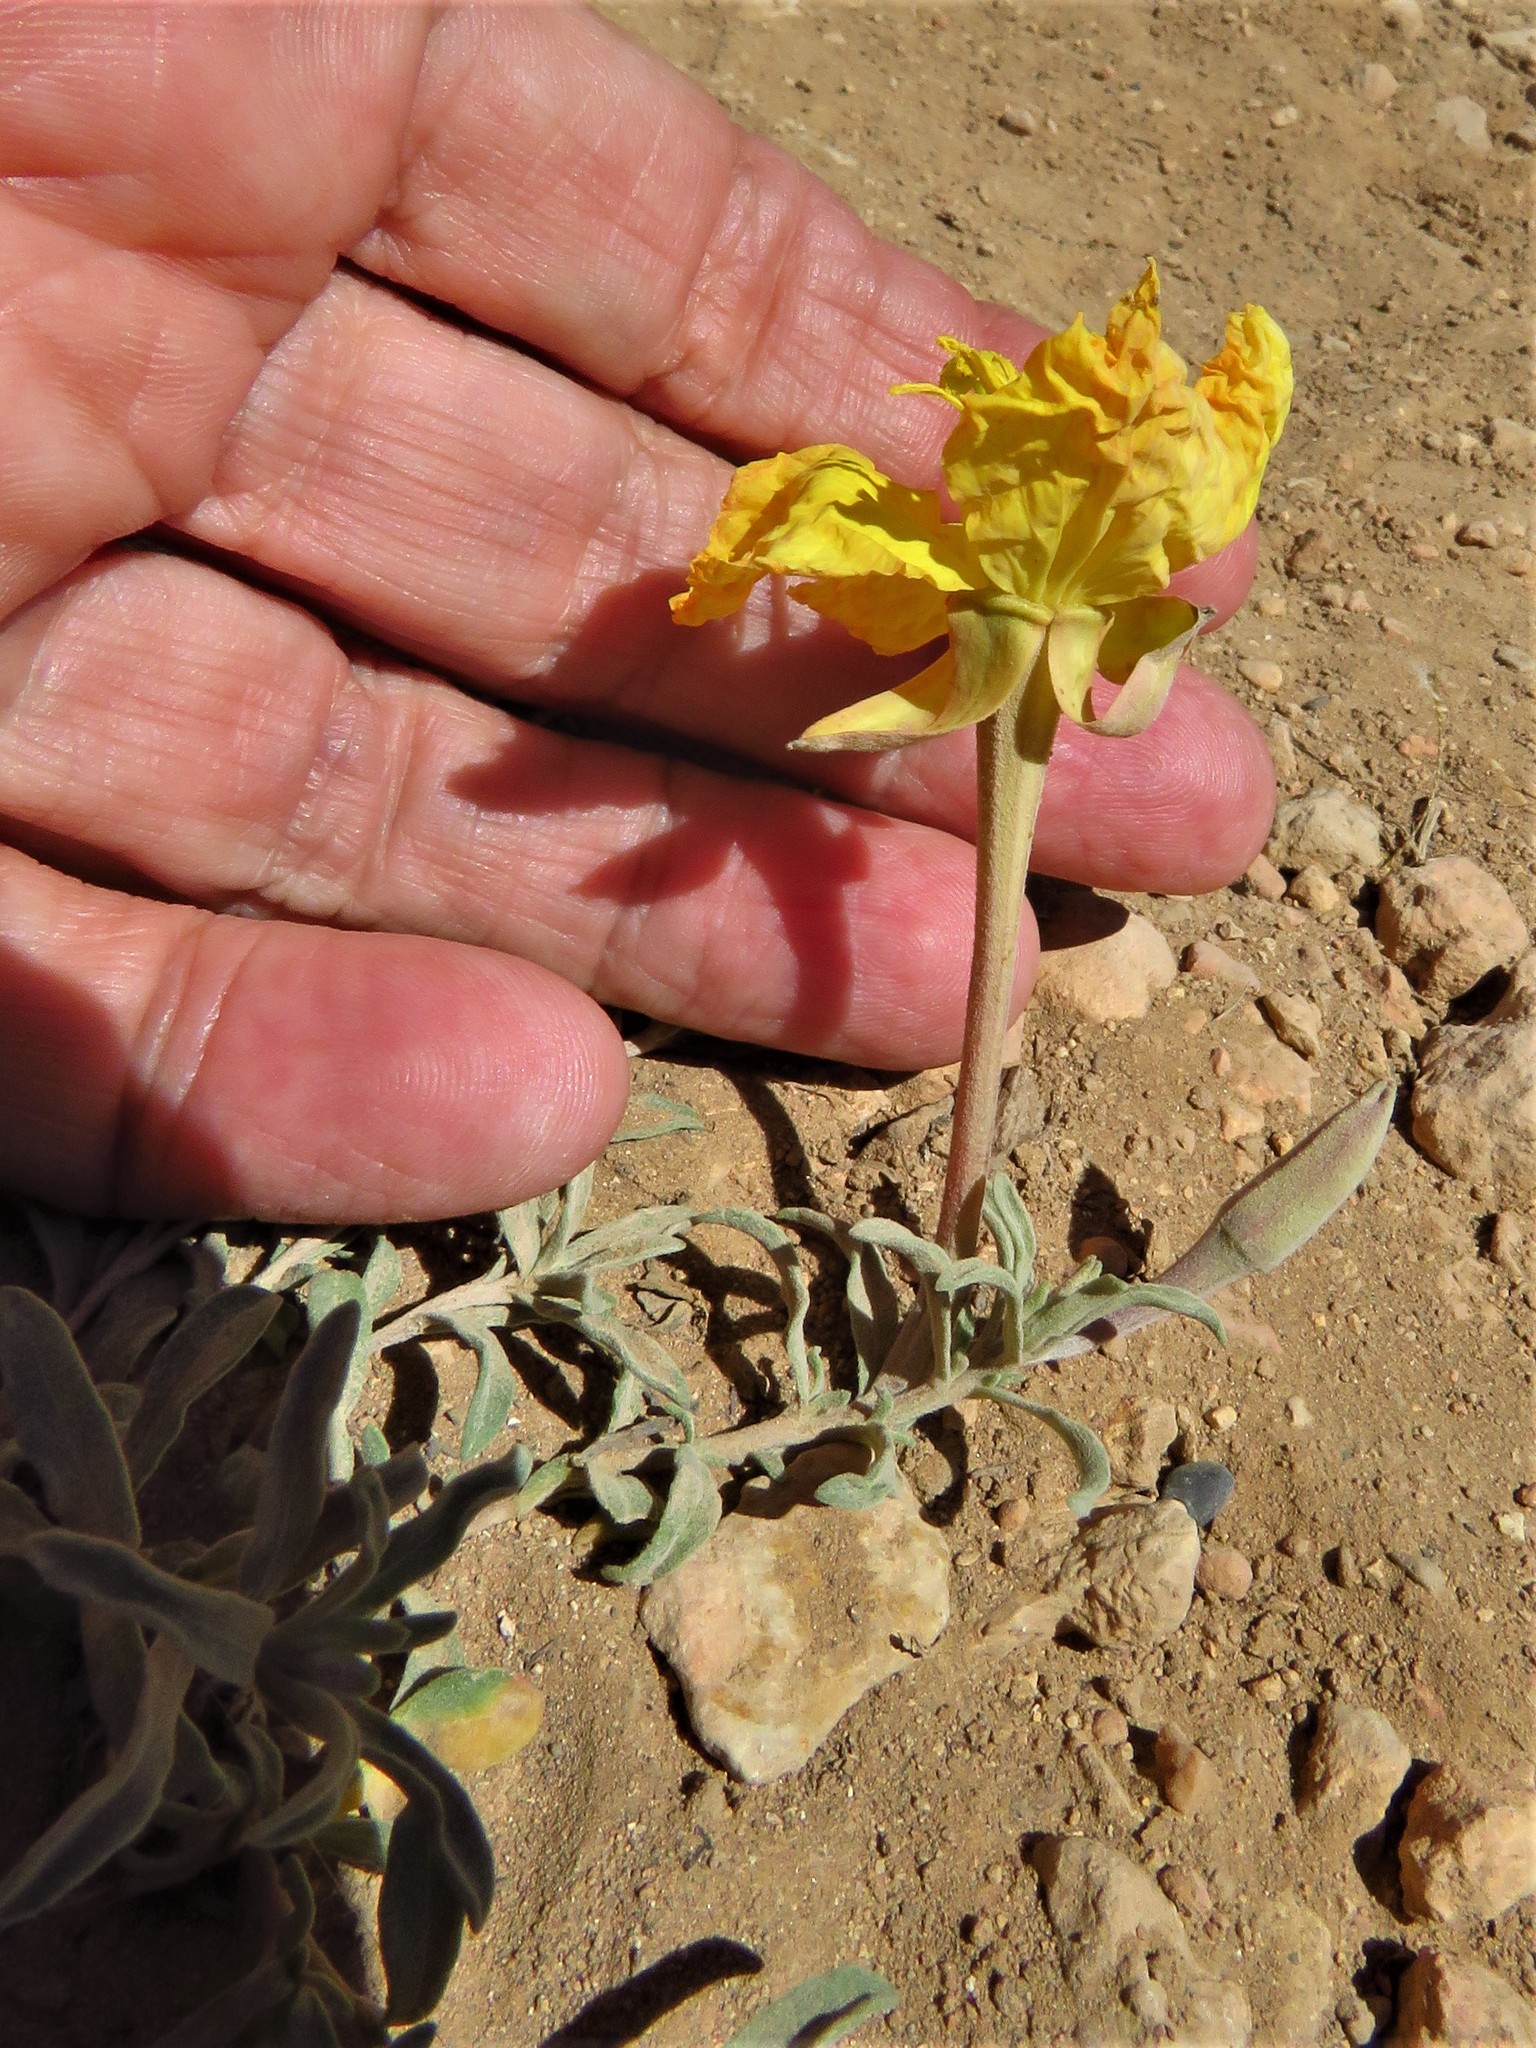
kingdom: Plantae
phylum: Tracheophyta
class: Magnoliopsida
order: Myrtales
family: Onagraceae
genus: Oenothera
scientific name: Oenothera lavandulifolia
